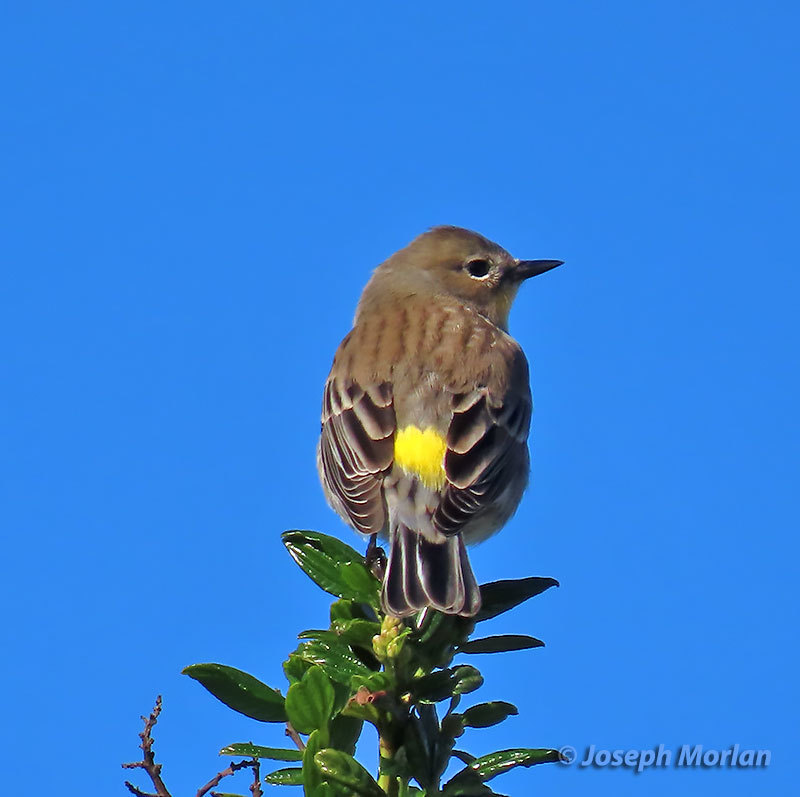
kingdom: Animalia
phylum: Chordata
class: Aves
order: Passeriformes
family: Parulidae
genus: Setophaga
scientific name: Setophaga coronata
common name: Myrtle warbler
